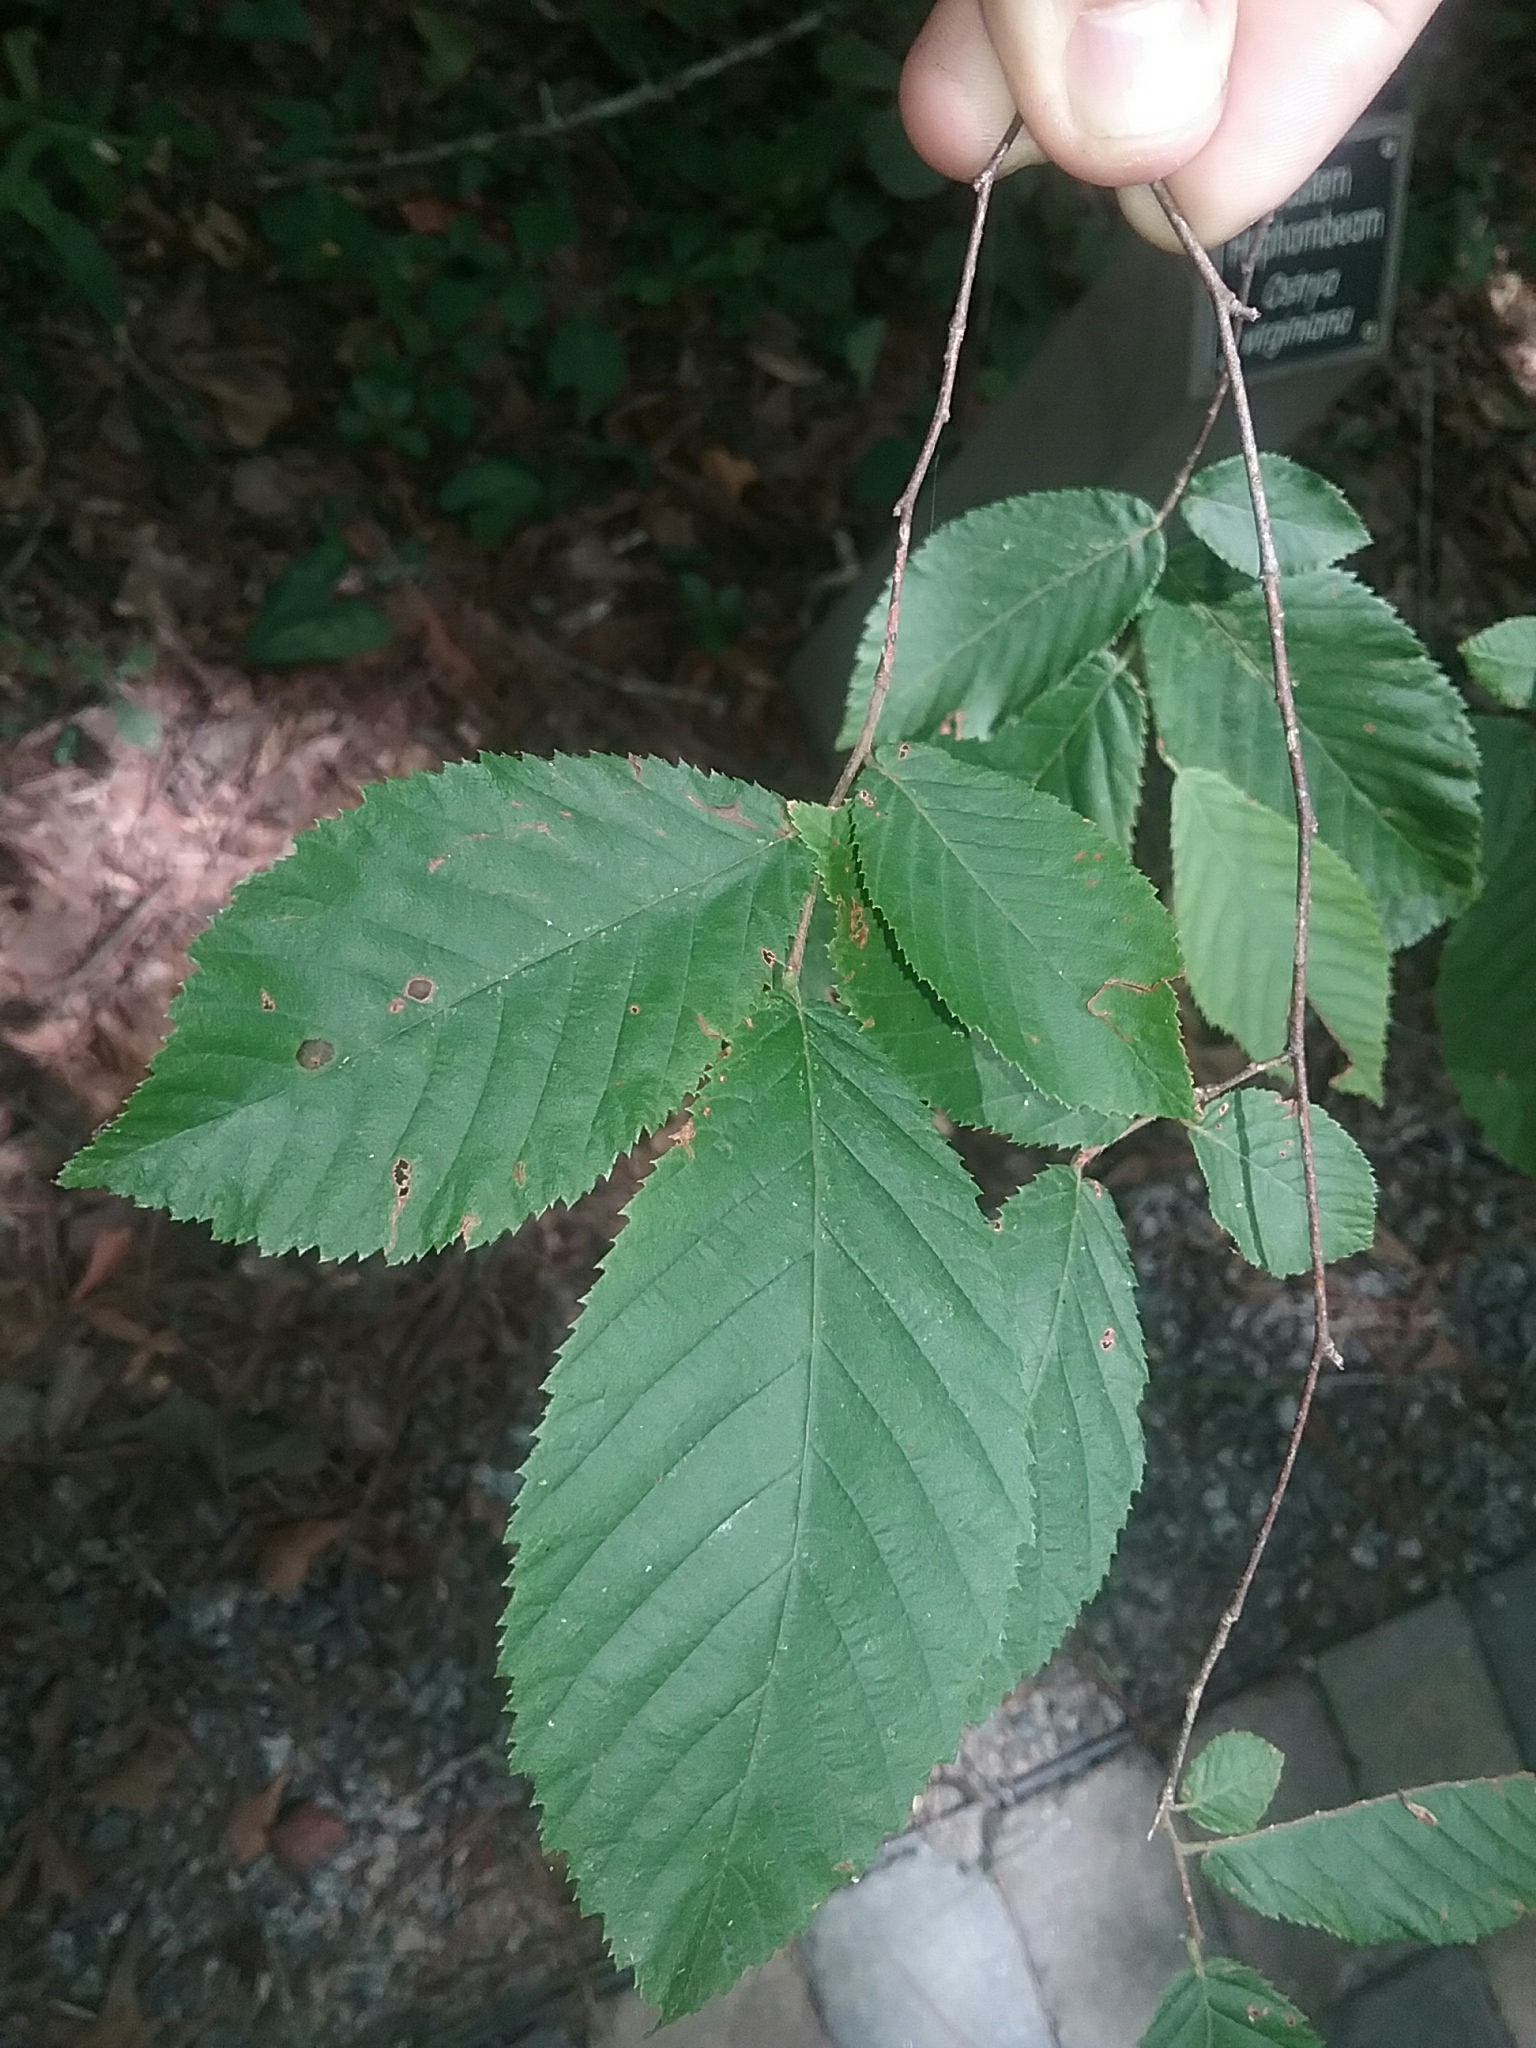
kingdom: Plantae
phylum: Tracheophyta
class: Magnoliopsida
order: Fagales
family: Betulaceae
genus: Ostrya
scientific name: Ostrya virginiana
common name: Ironwood
